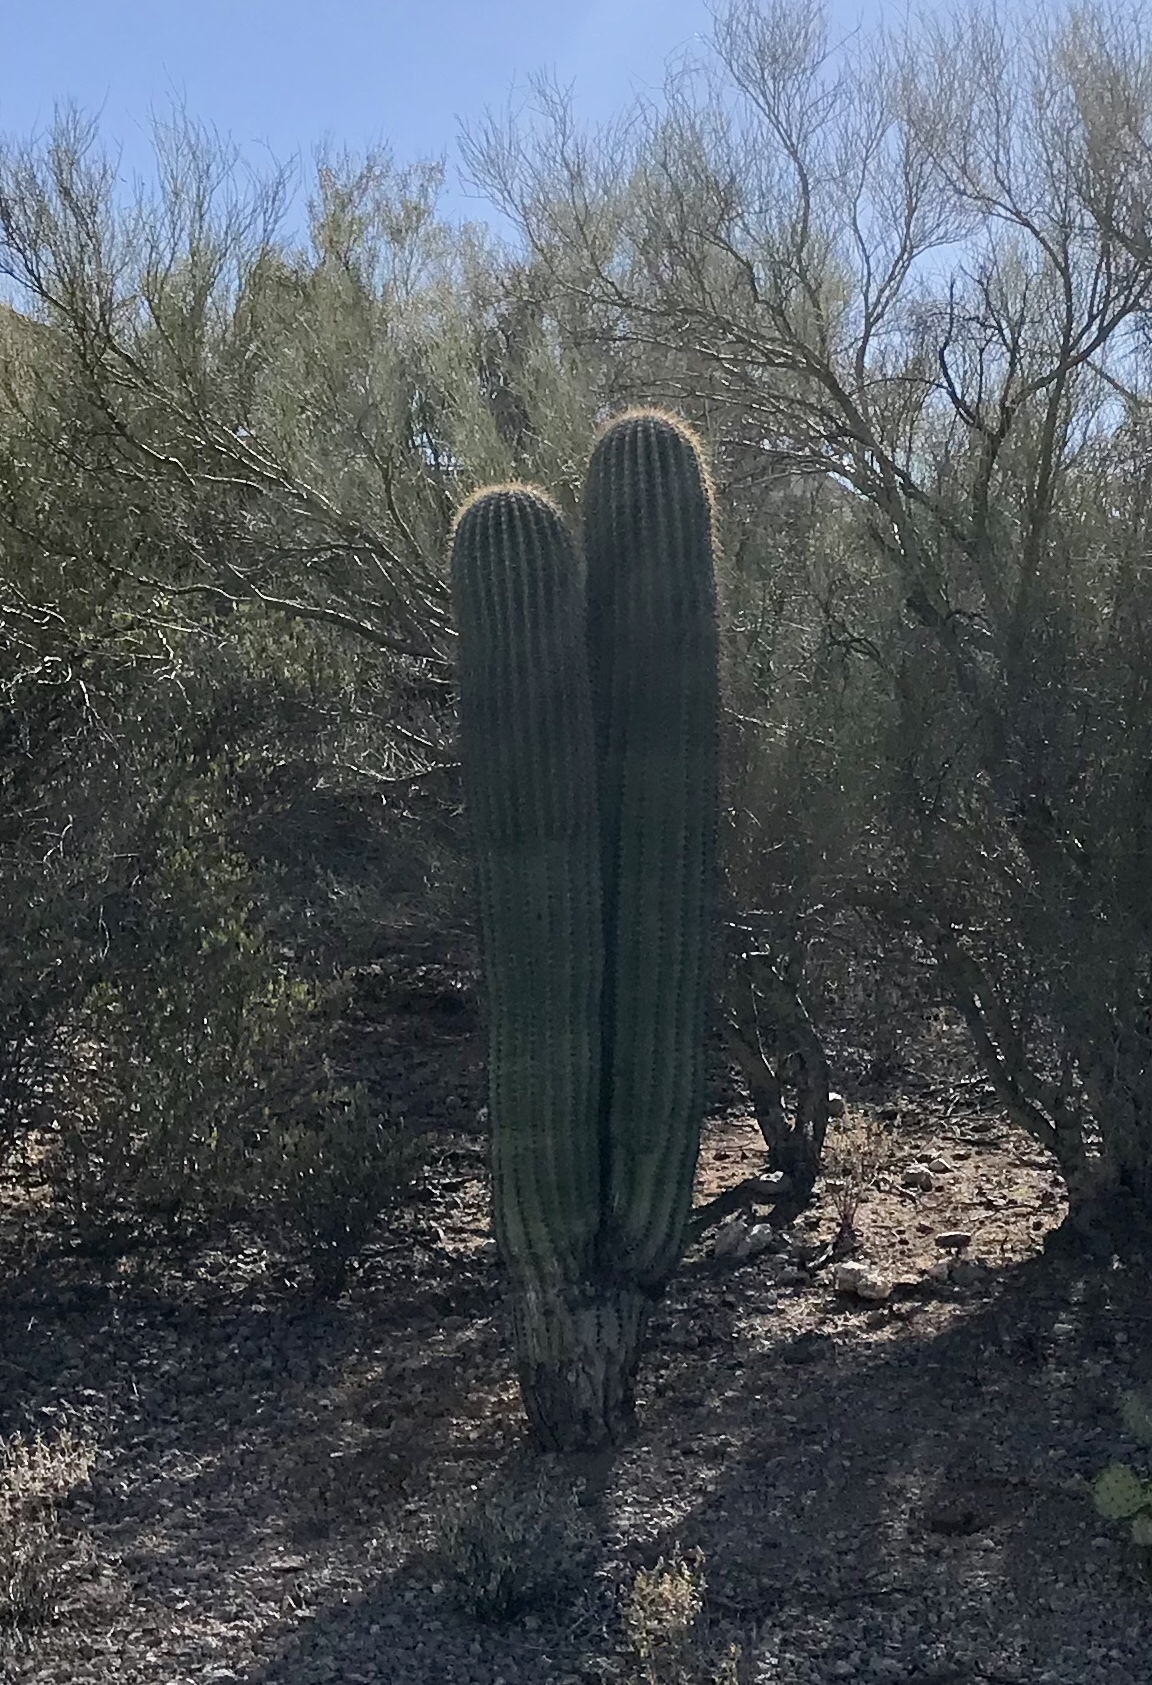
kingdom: Plantae
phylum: Tracheophyta
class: Magnoliopsida
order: Caryophyllales
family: Cactaceae
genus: Carnegiea
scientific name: Carnegiea gigantea
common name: Saguaro
